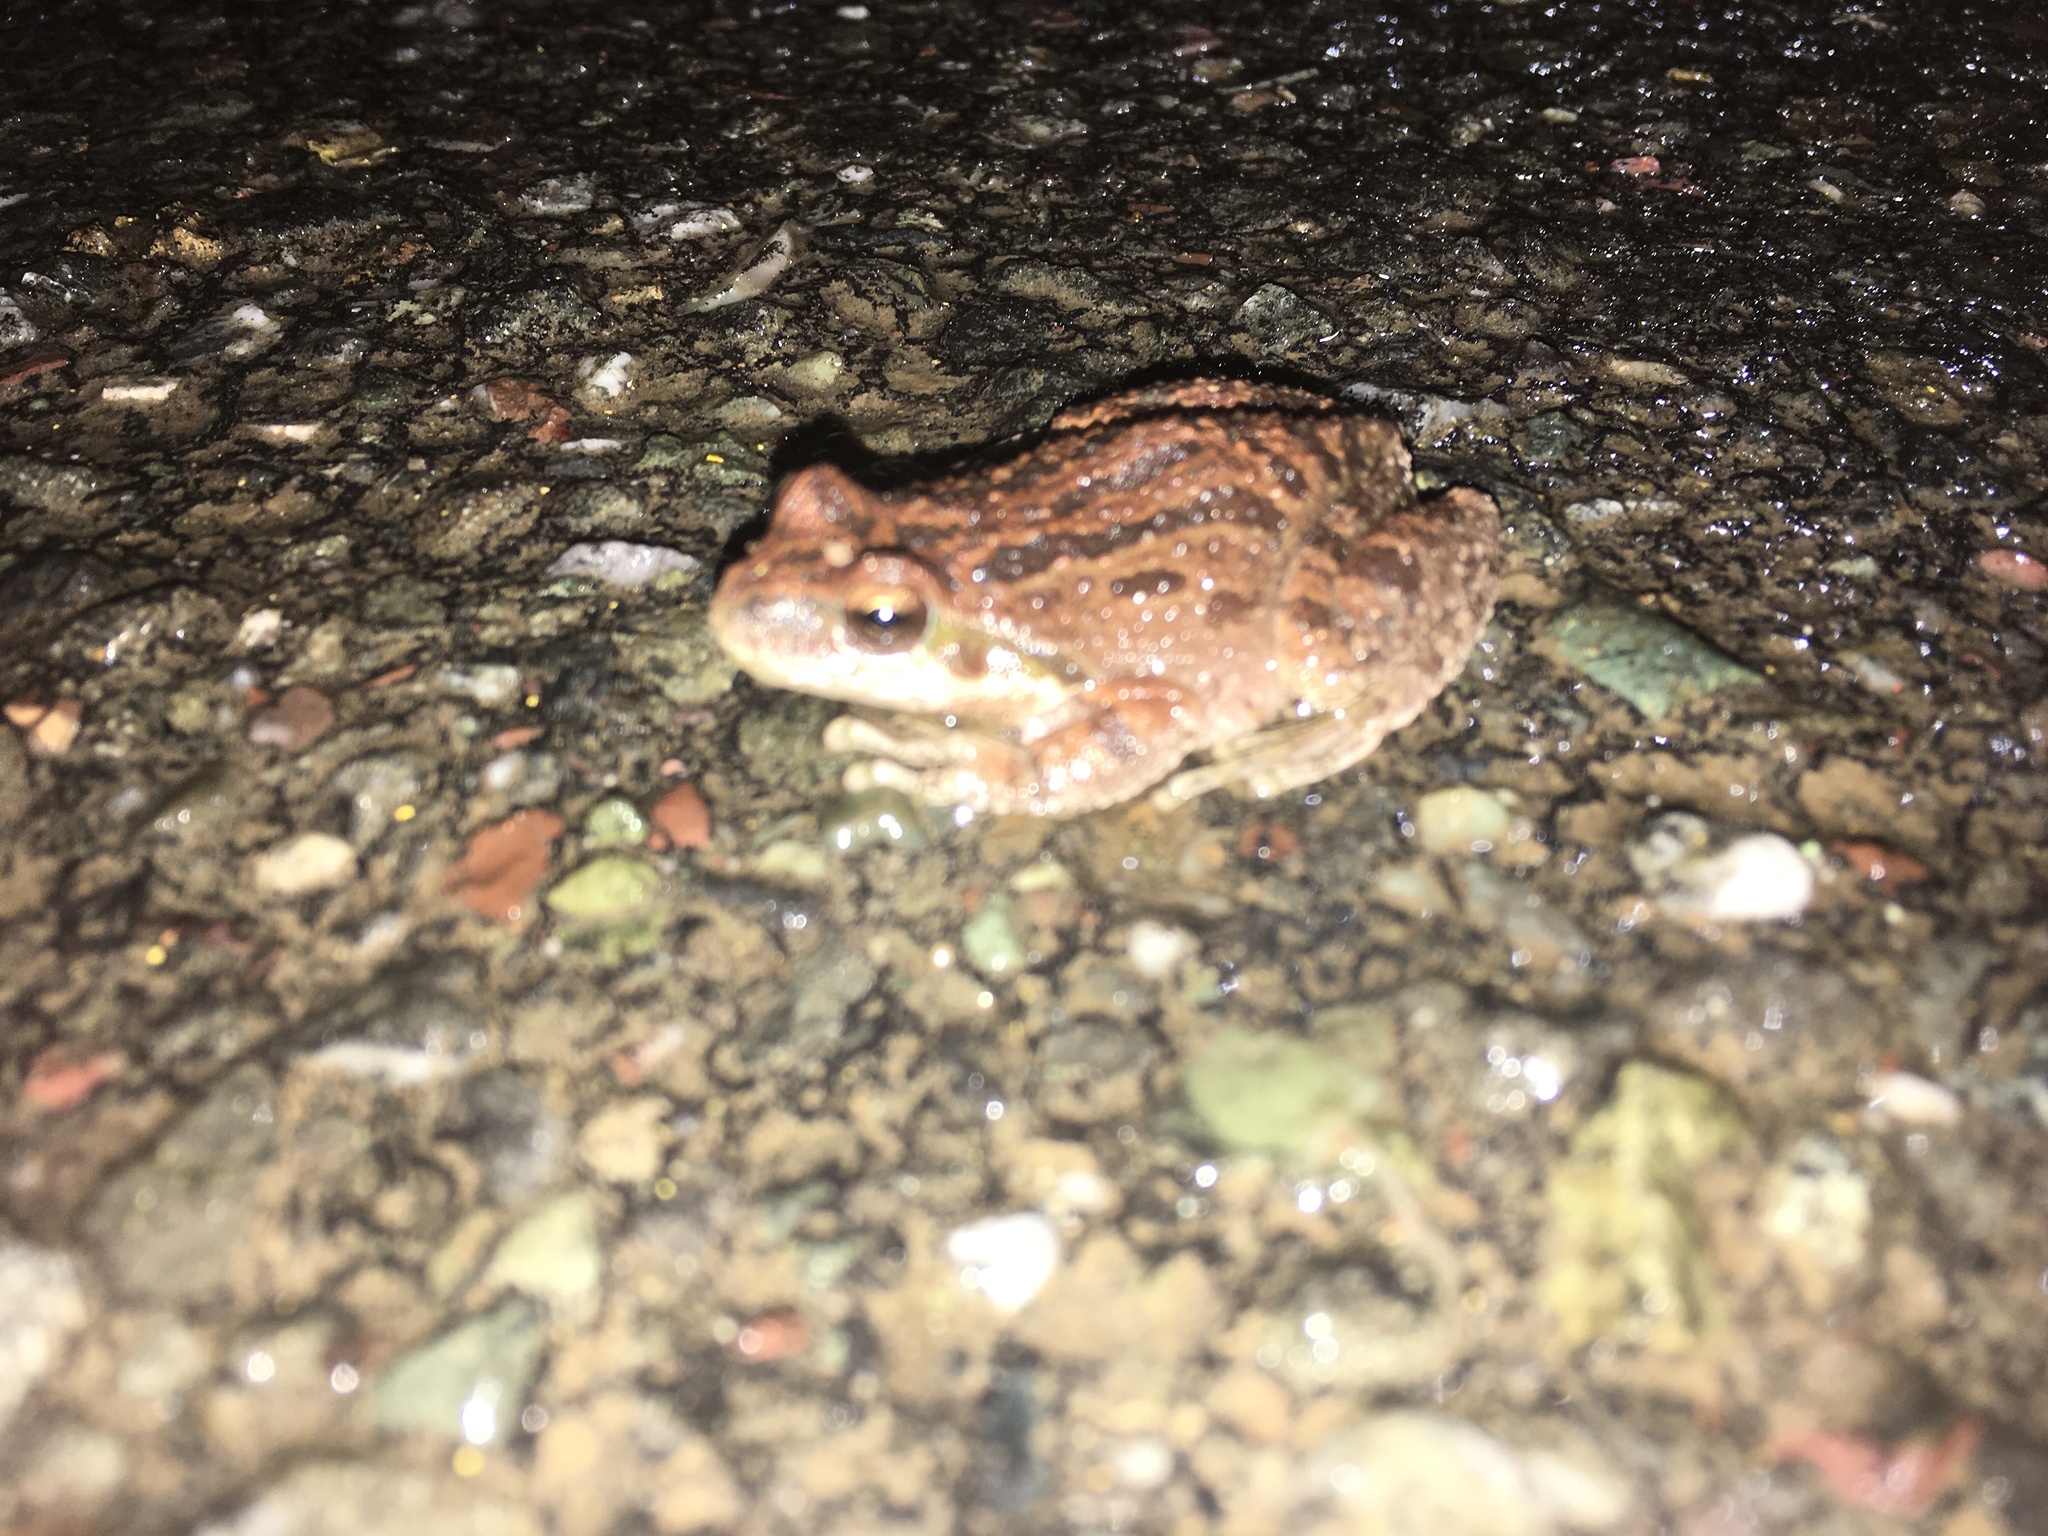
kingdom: Animalia
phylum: Chordata
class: Amphibia
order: Anura
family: Hylidae
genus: Pseudacris
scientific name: Pseudacris regilla
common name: Pacific chorus frog
